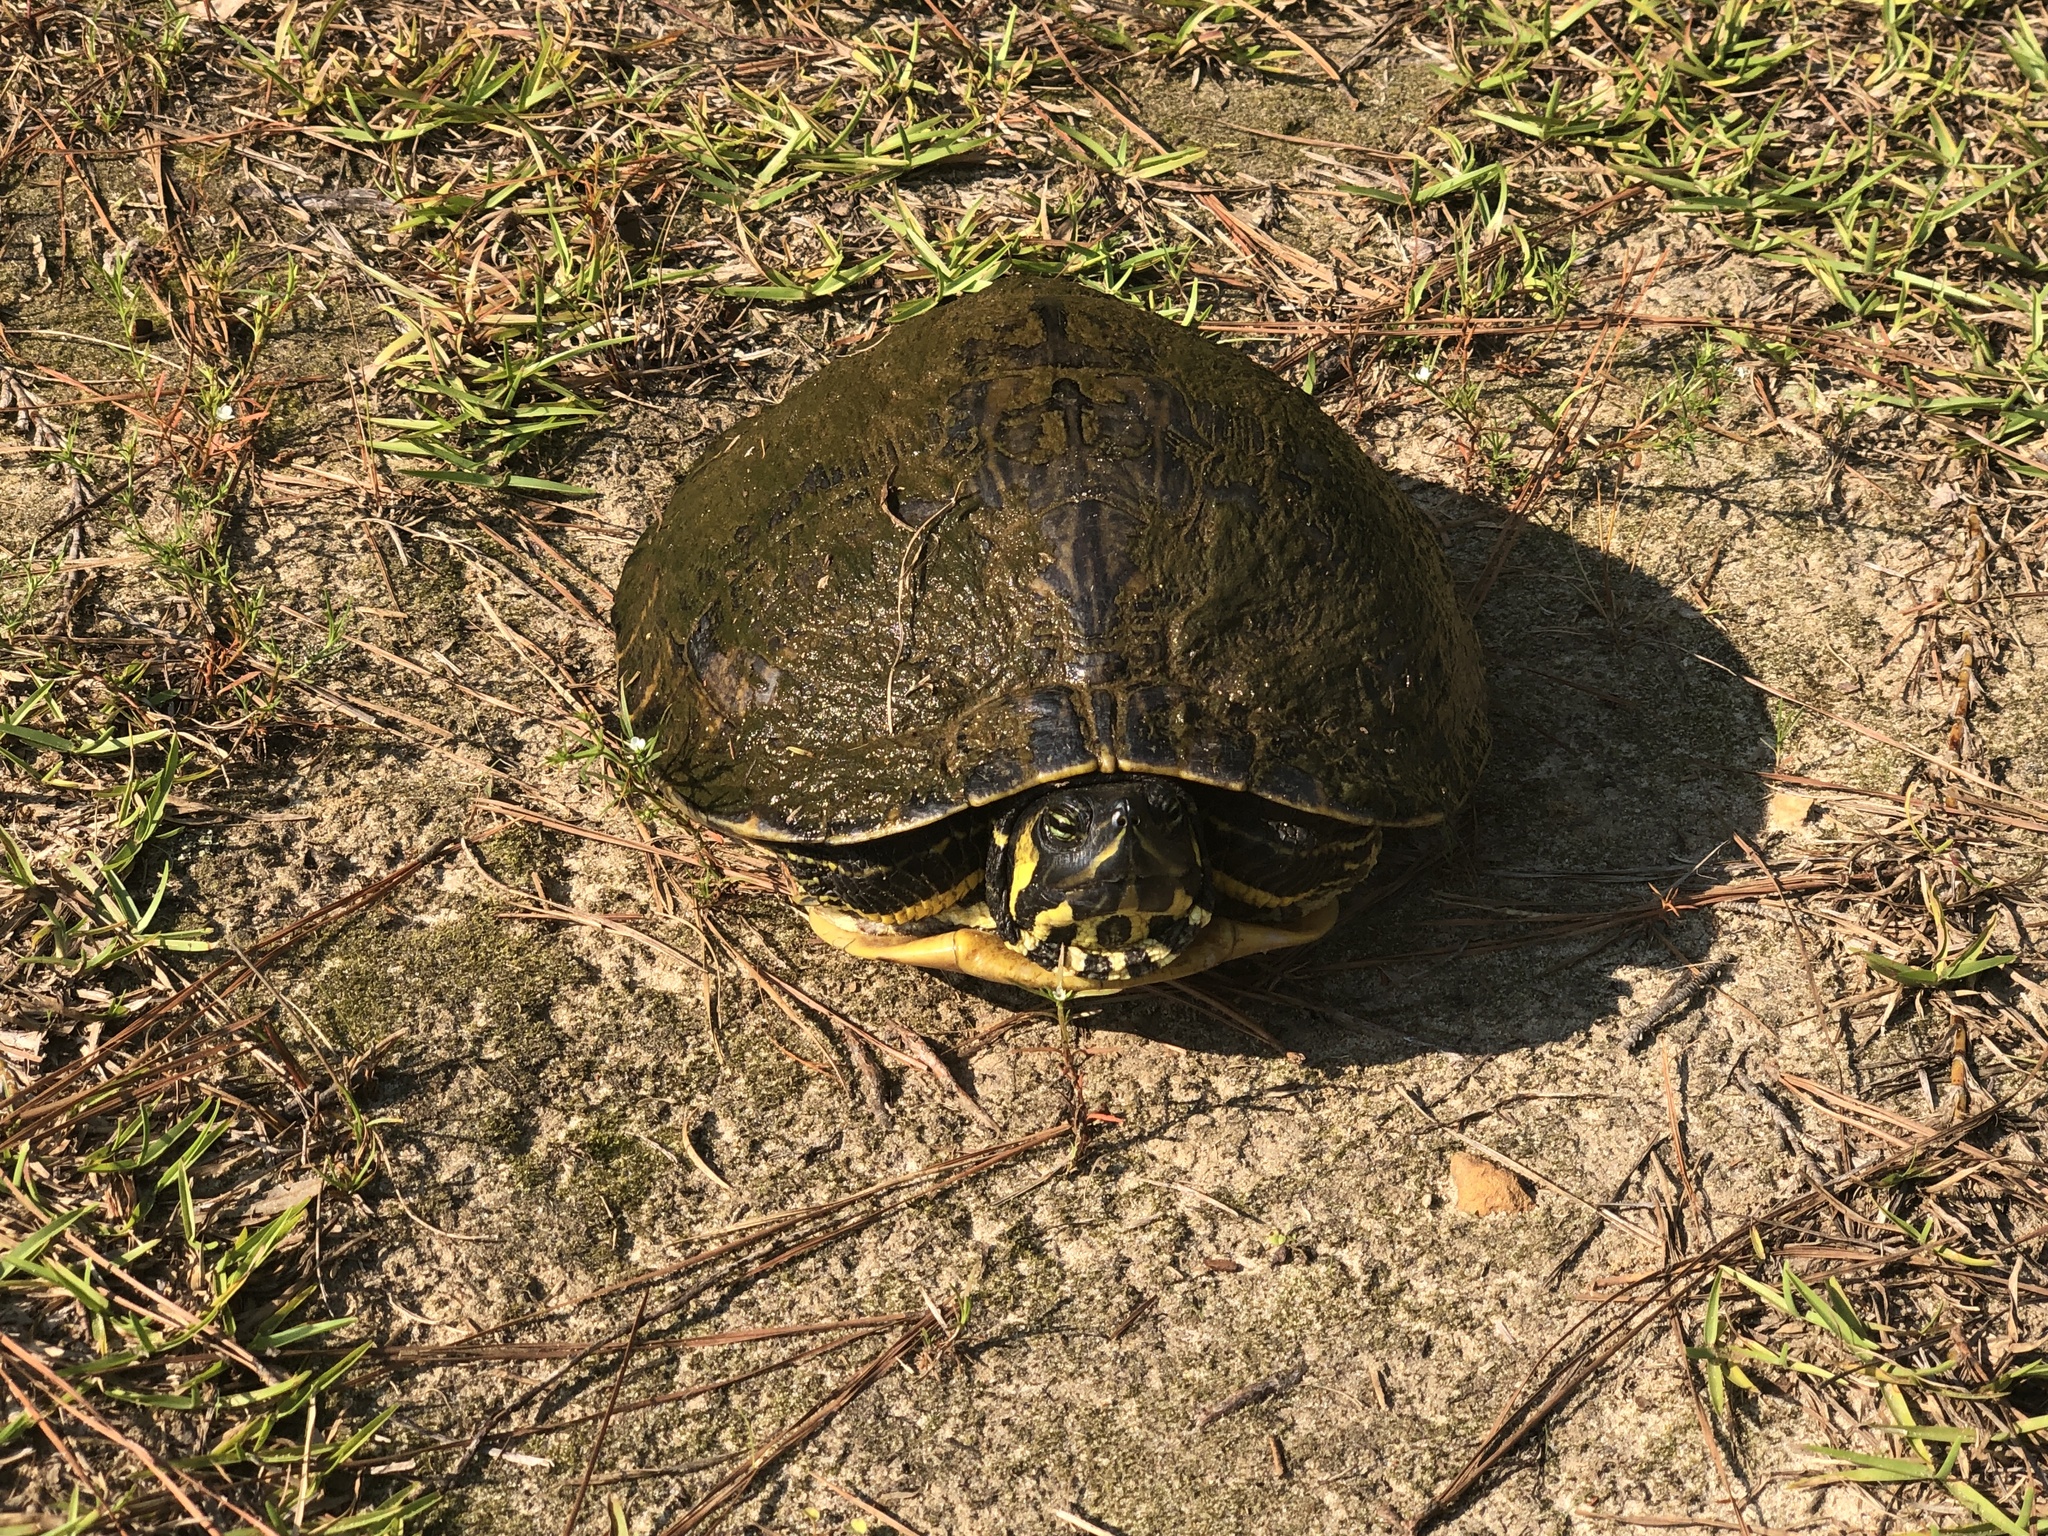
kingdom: Animalia
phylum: Chordata
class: Testudines
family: Emydidae
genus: Trachemys
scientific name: Trachemys scripta
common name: Slider
